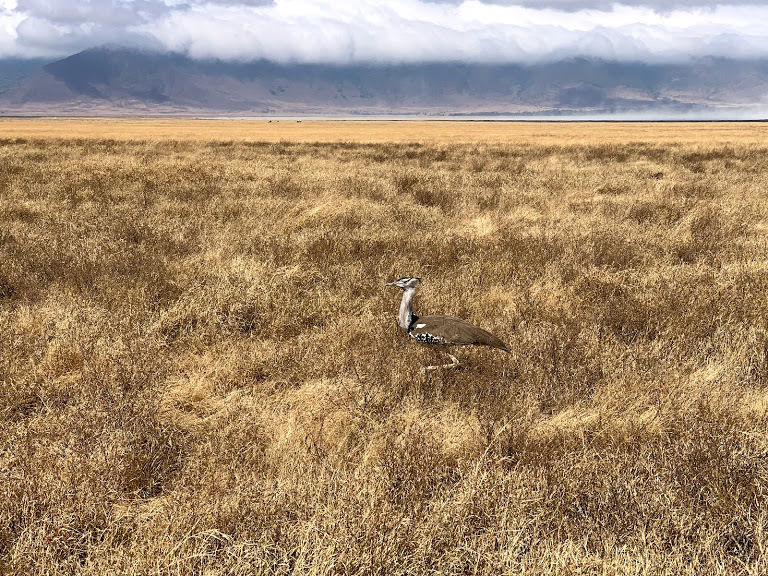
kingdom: Animalia
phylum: Chordata
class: Aves
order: Otidiformes
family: Otididae
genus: Ardeotis
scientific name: Ardeotis kori
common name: Kori bustard
